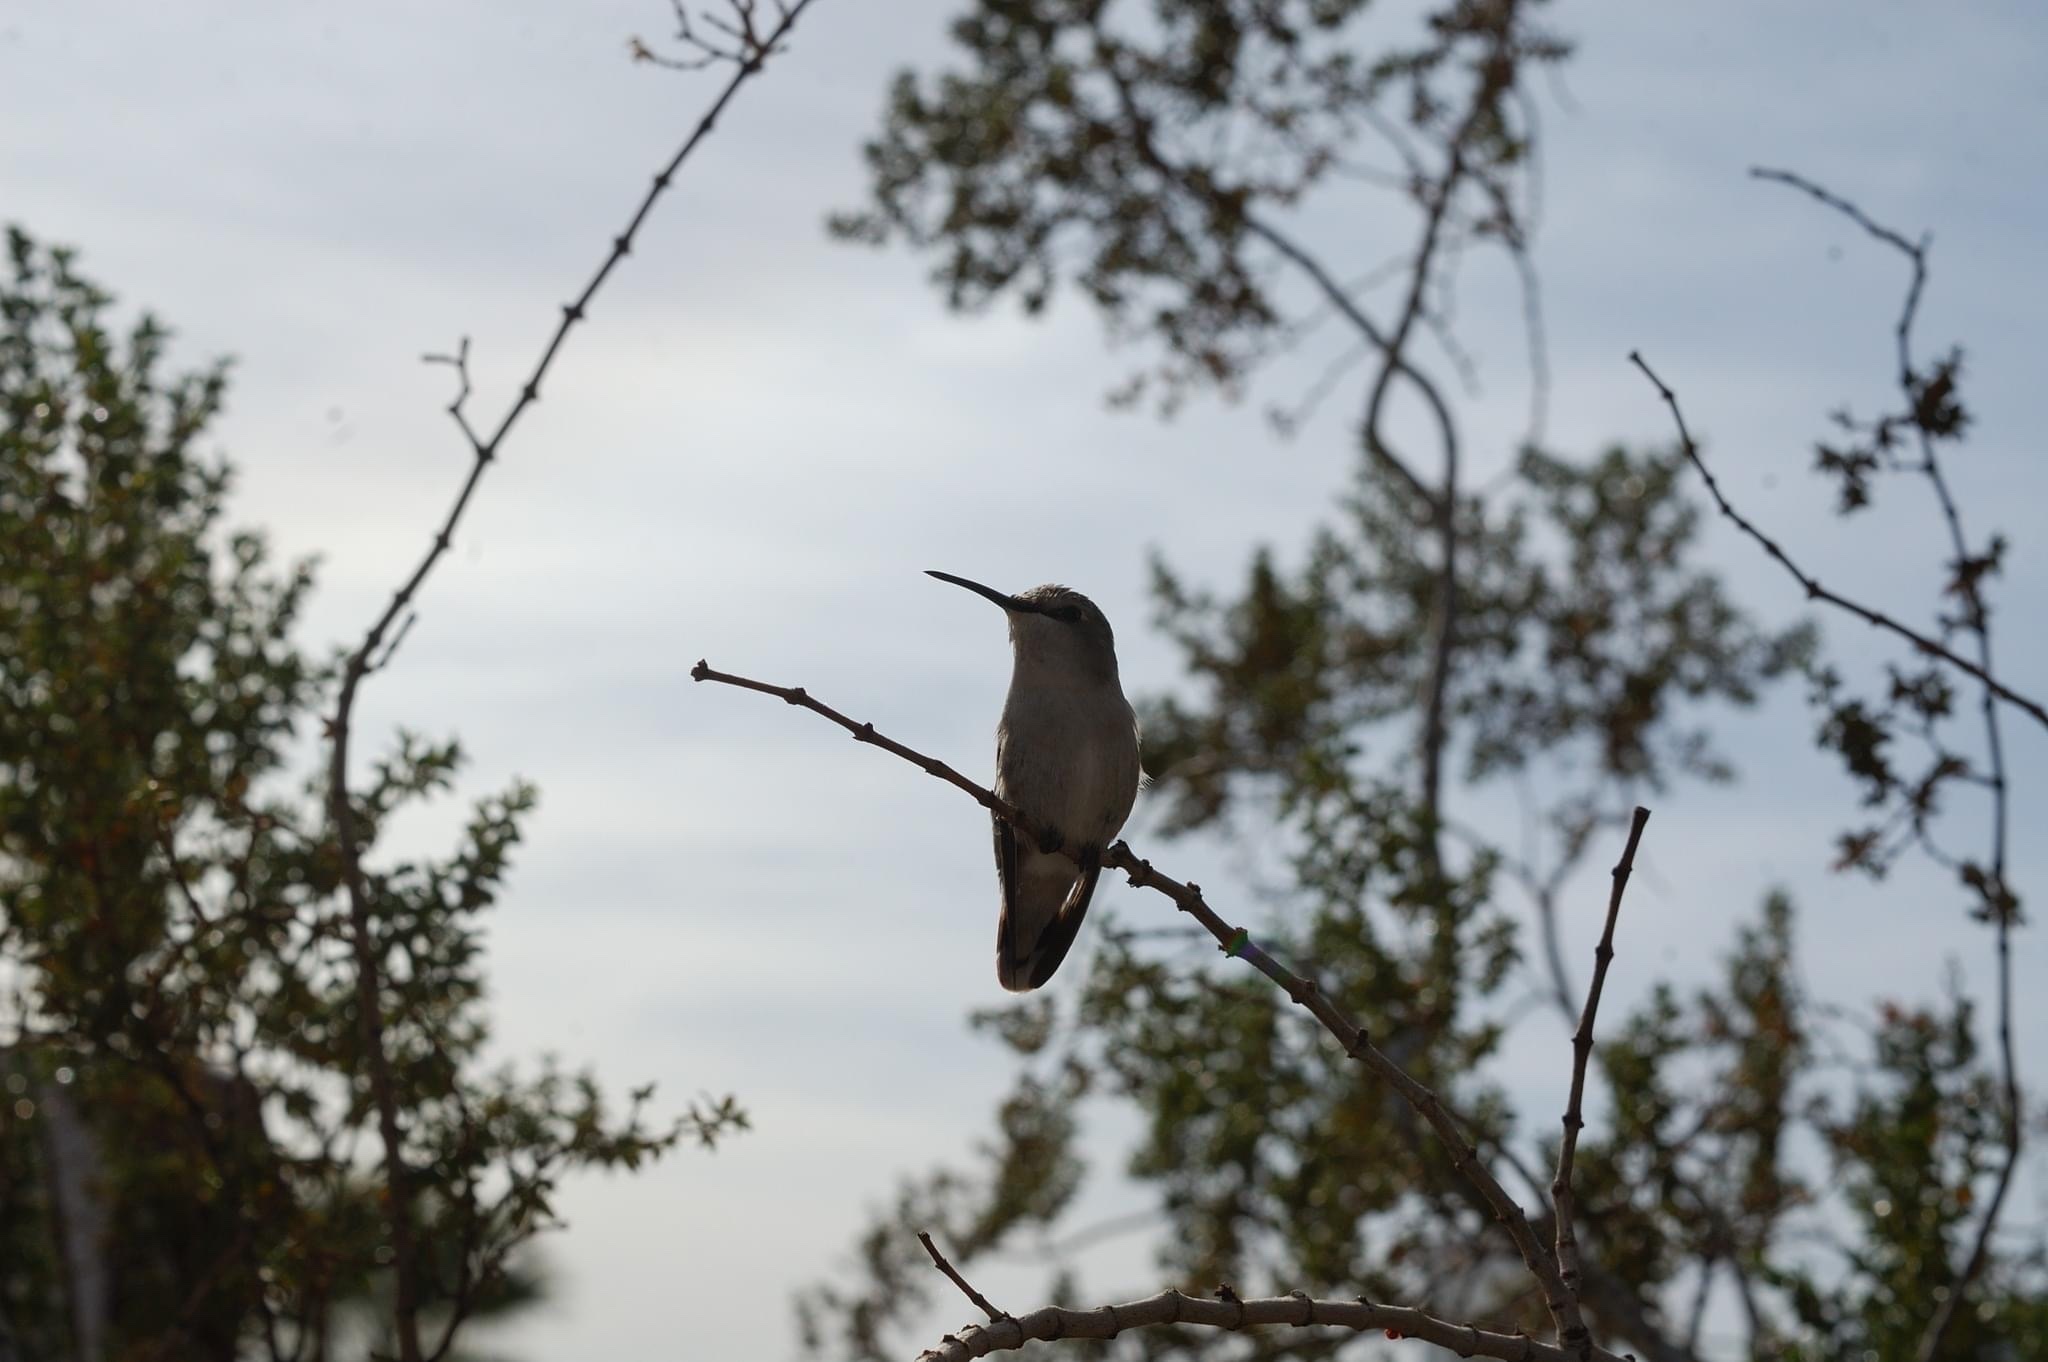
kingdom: Animalia
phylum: Chordata
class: Aves
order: Apodiformes
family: Trochilidae
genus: Calypte
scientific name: Calypte costae
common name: Costa's hummingbird
